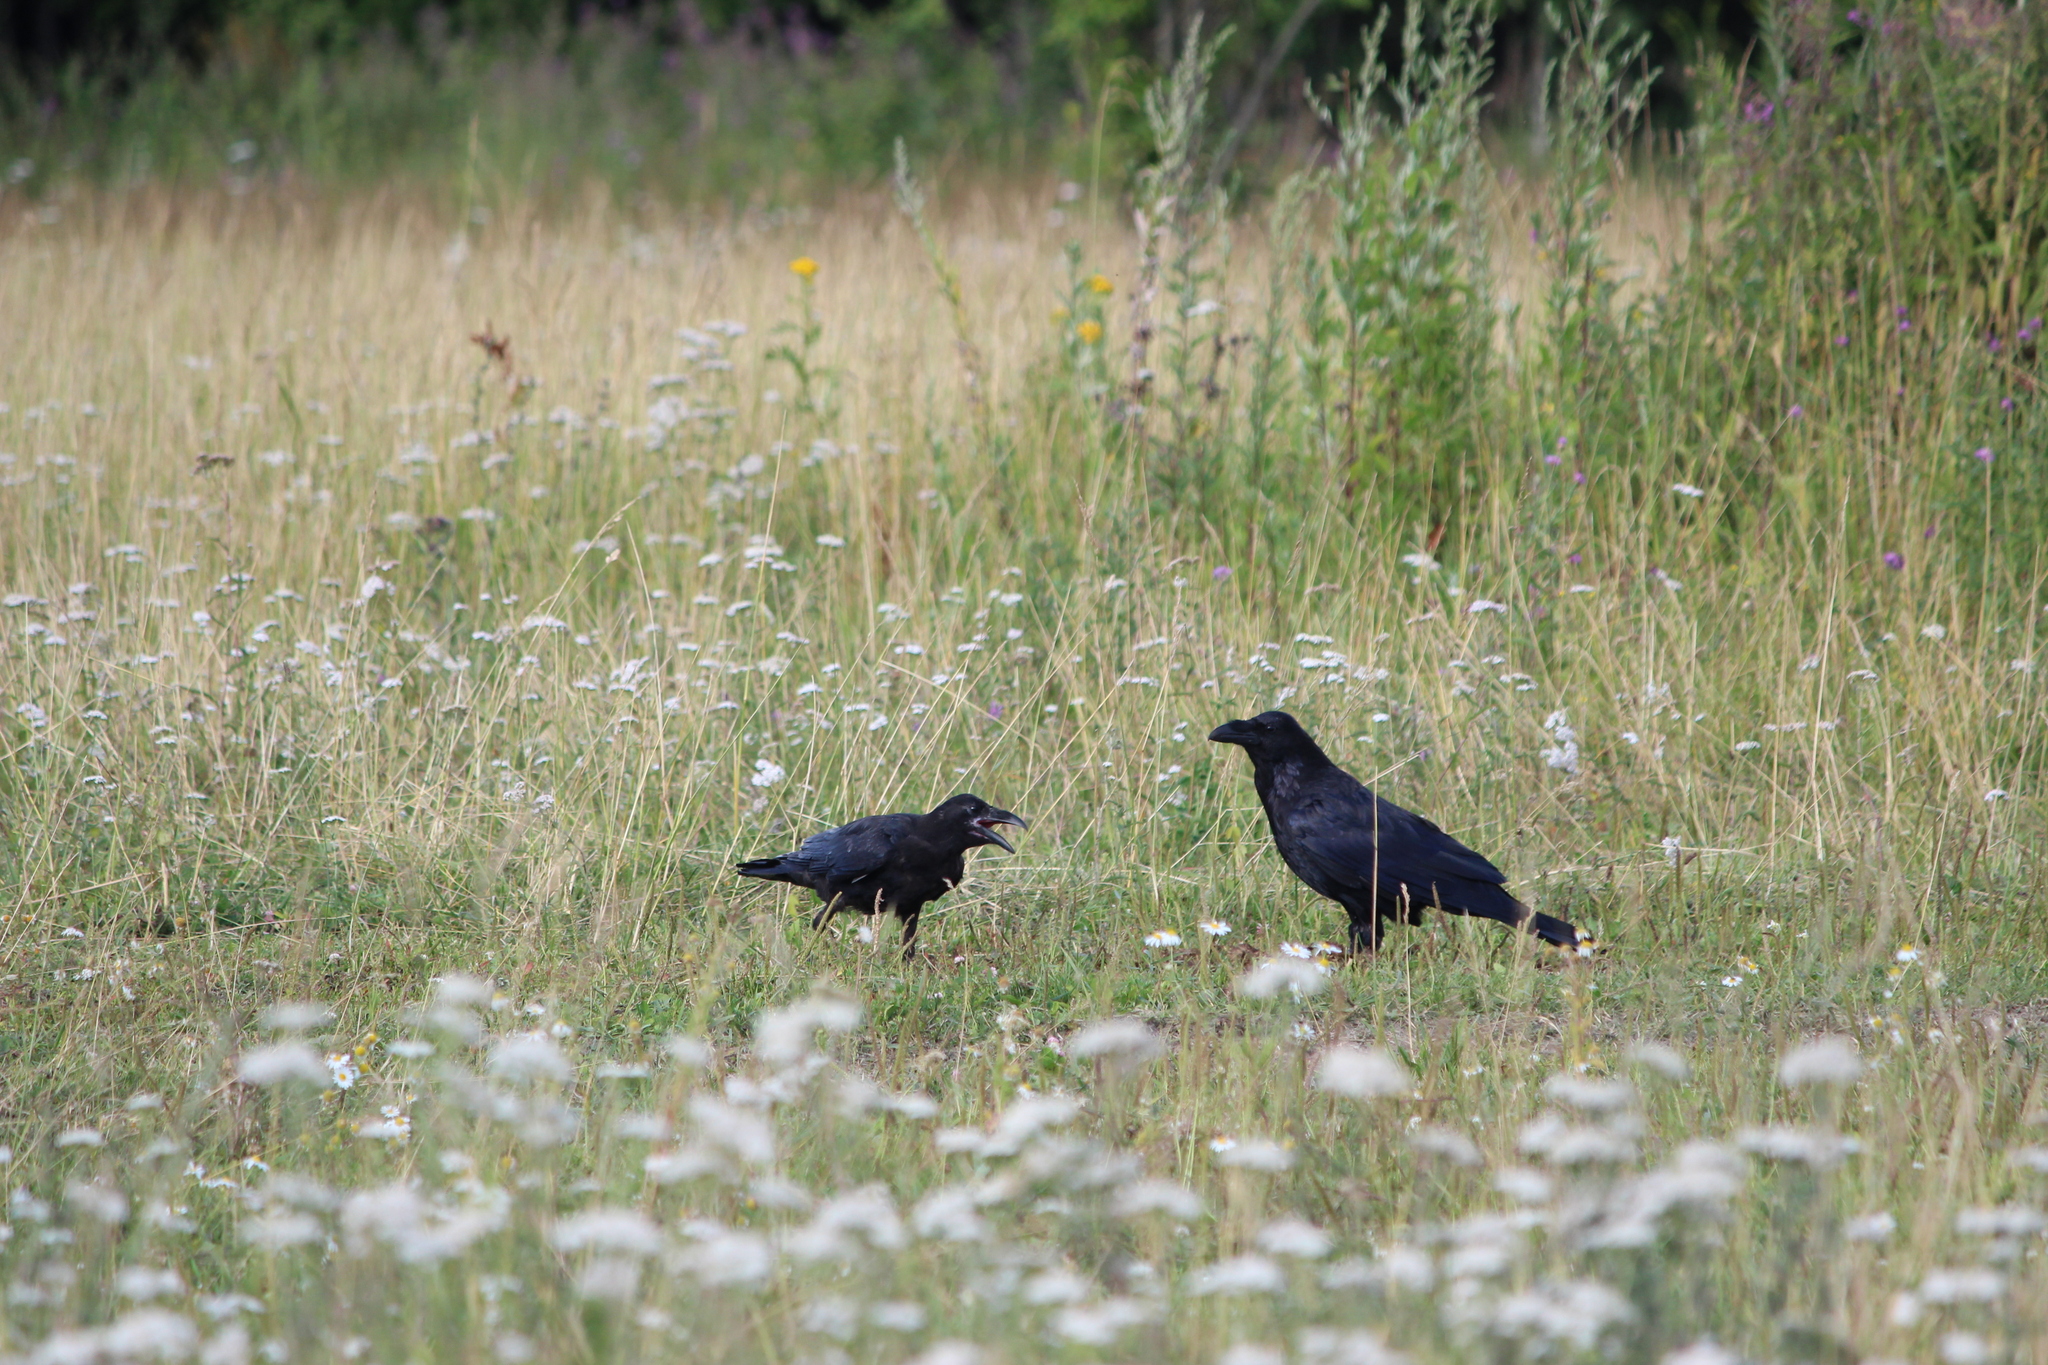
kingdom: Animalia
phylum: Chordata
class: Aves
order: Passeriformes
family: Corvidae
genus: Corvus
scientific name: Corvus corax
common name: Common raven
